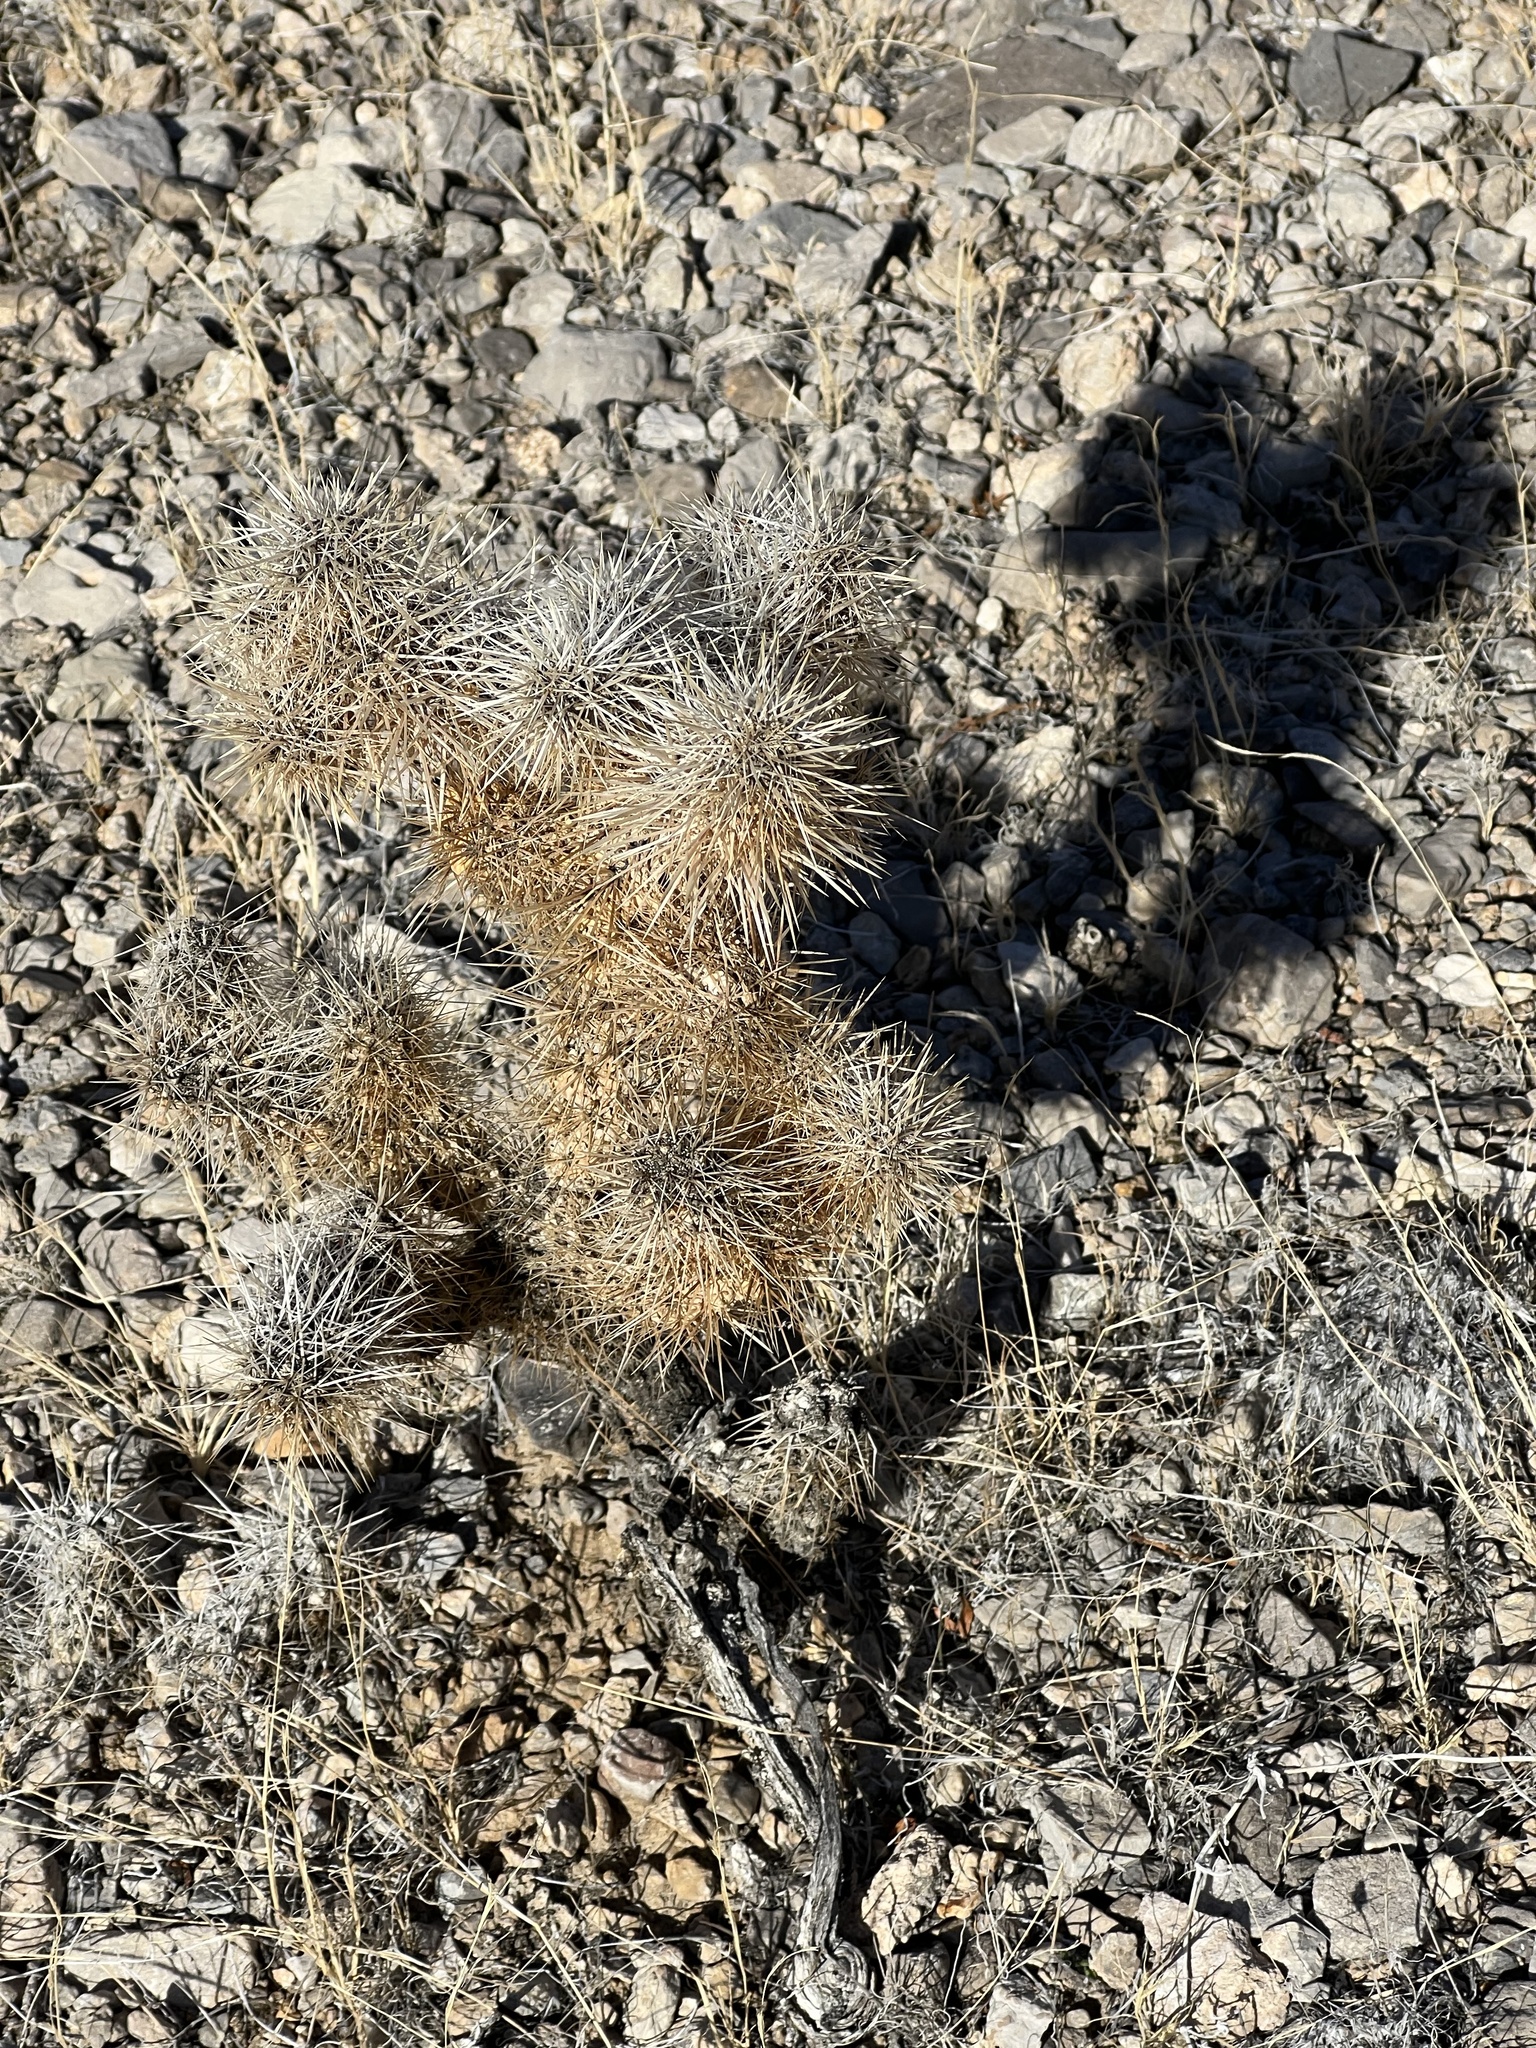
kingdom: Plantae
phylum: Tracheophyta
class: Magnoliopsida
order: Caryophyllales
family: Cactaceae
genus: Cylindropuntia
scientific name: Cylindropuntia echinocarpa
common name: Ground cholla
